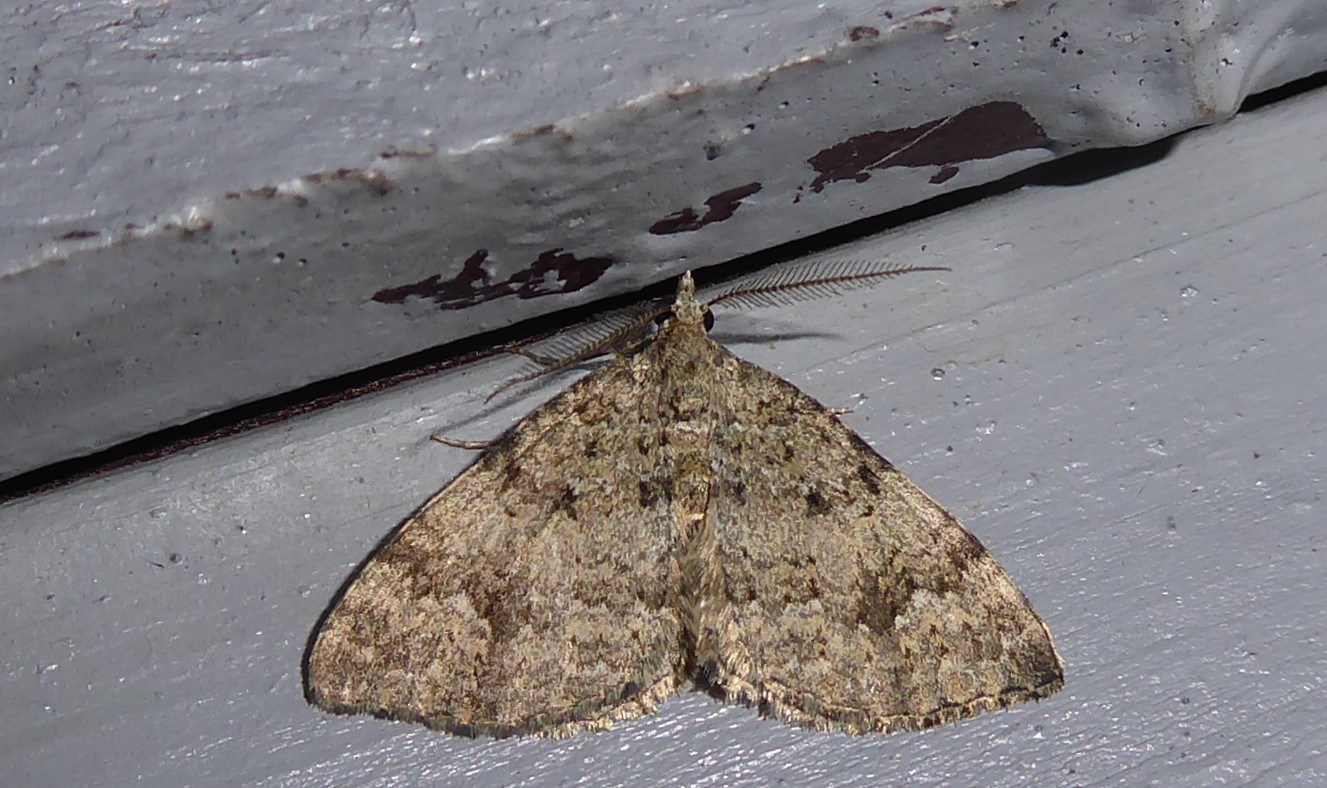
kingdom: Animalia
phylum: Arthropoda
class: Insecta
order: Lepidoptera
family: Geometridae
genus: Helastia
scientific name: Helastia corcularia
